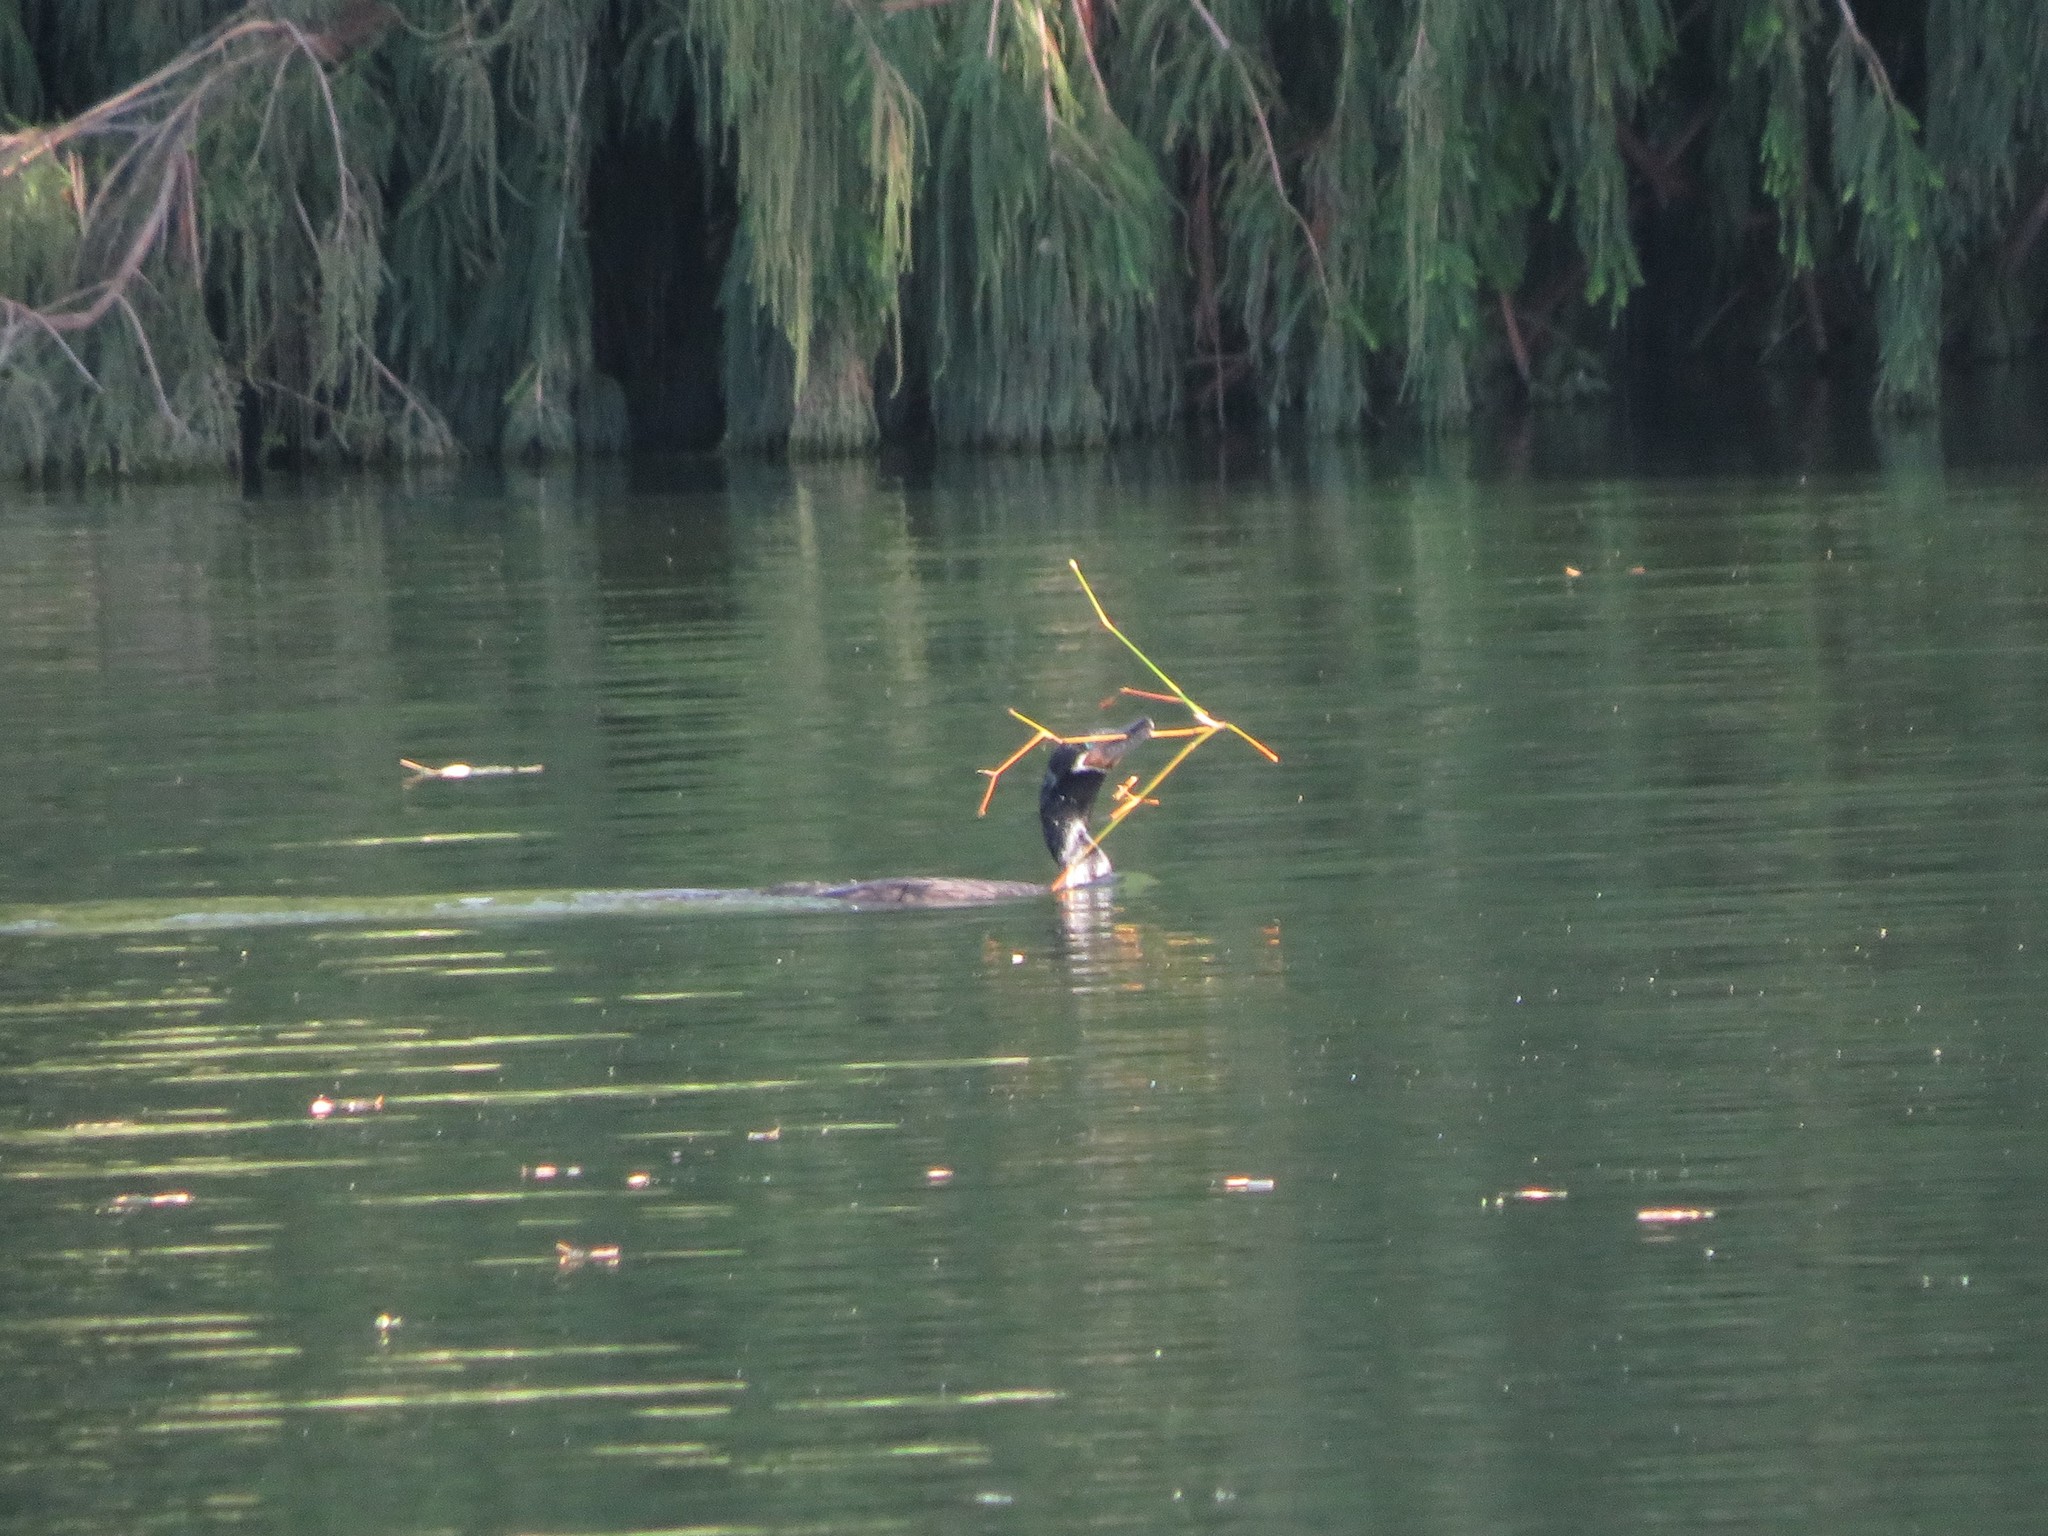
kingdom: Animalia
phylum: Chordata
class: Aves
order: Suliformes
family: Phalacrocoracidae
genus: Phalacrocorax
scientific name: Phalacrocorax brasilianus
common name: Neotropic cormorant
